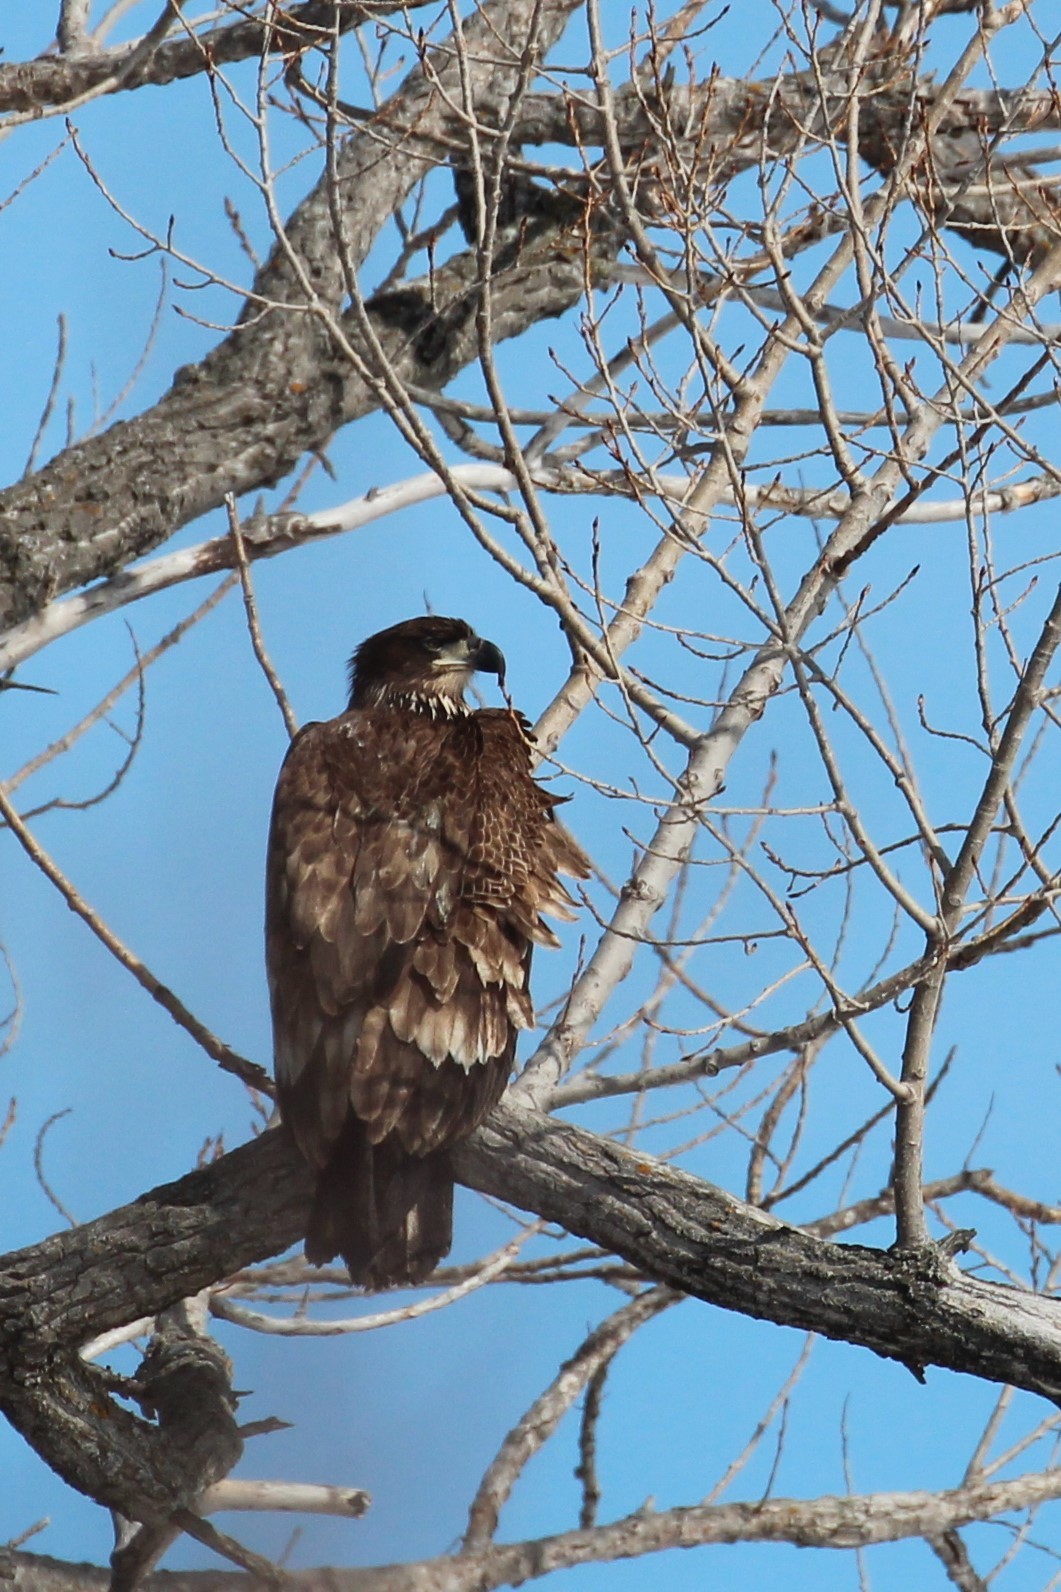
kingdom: Animalia
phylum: Chordata
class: Aves
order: Accipitriformes
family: Accipitridae
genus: Haliaeetus
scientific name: Haliaeetus leucocephalus
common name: Bald eagle
